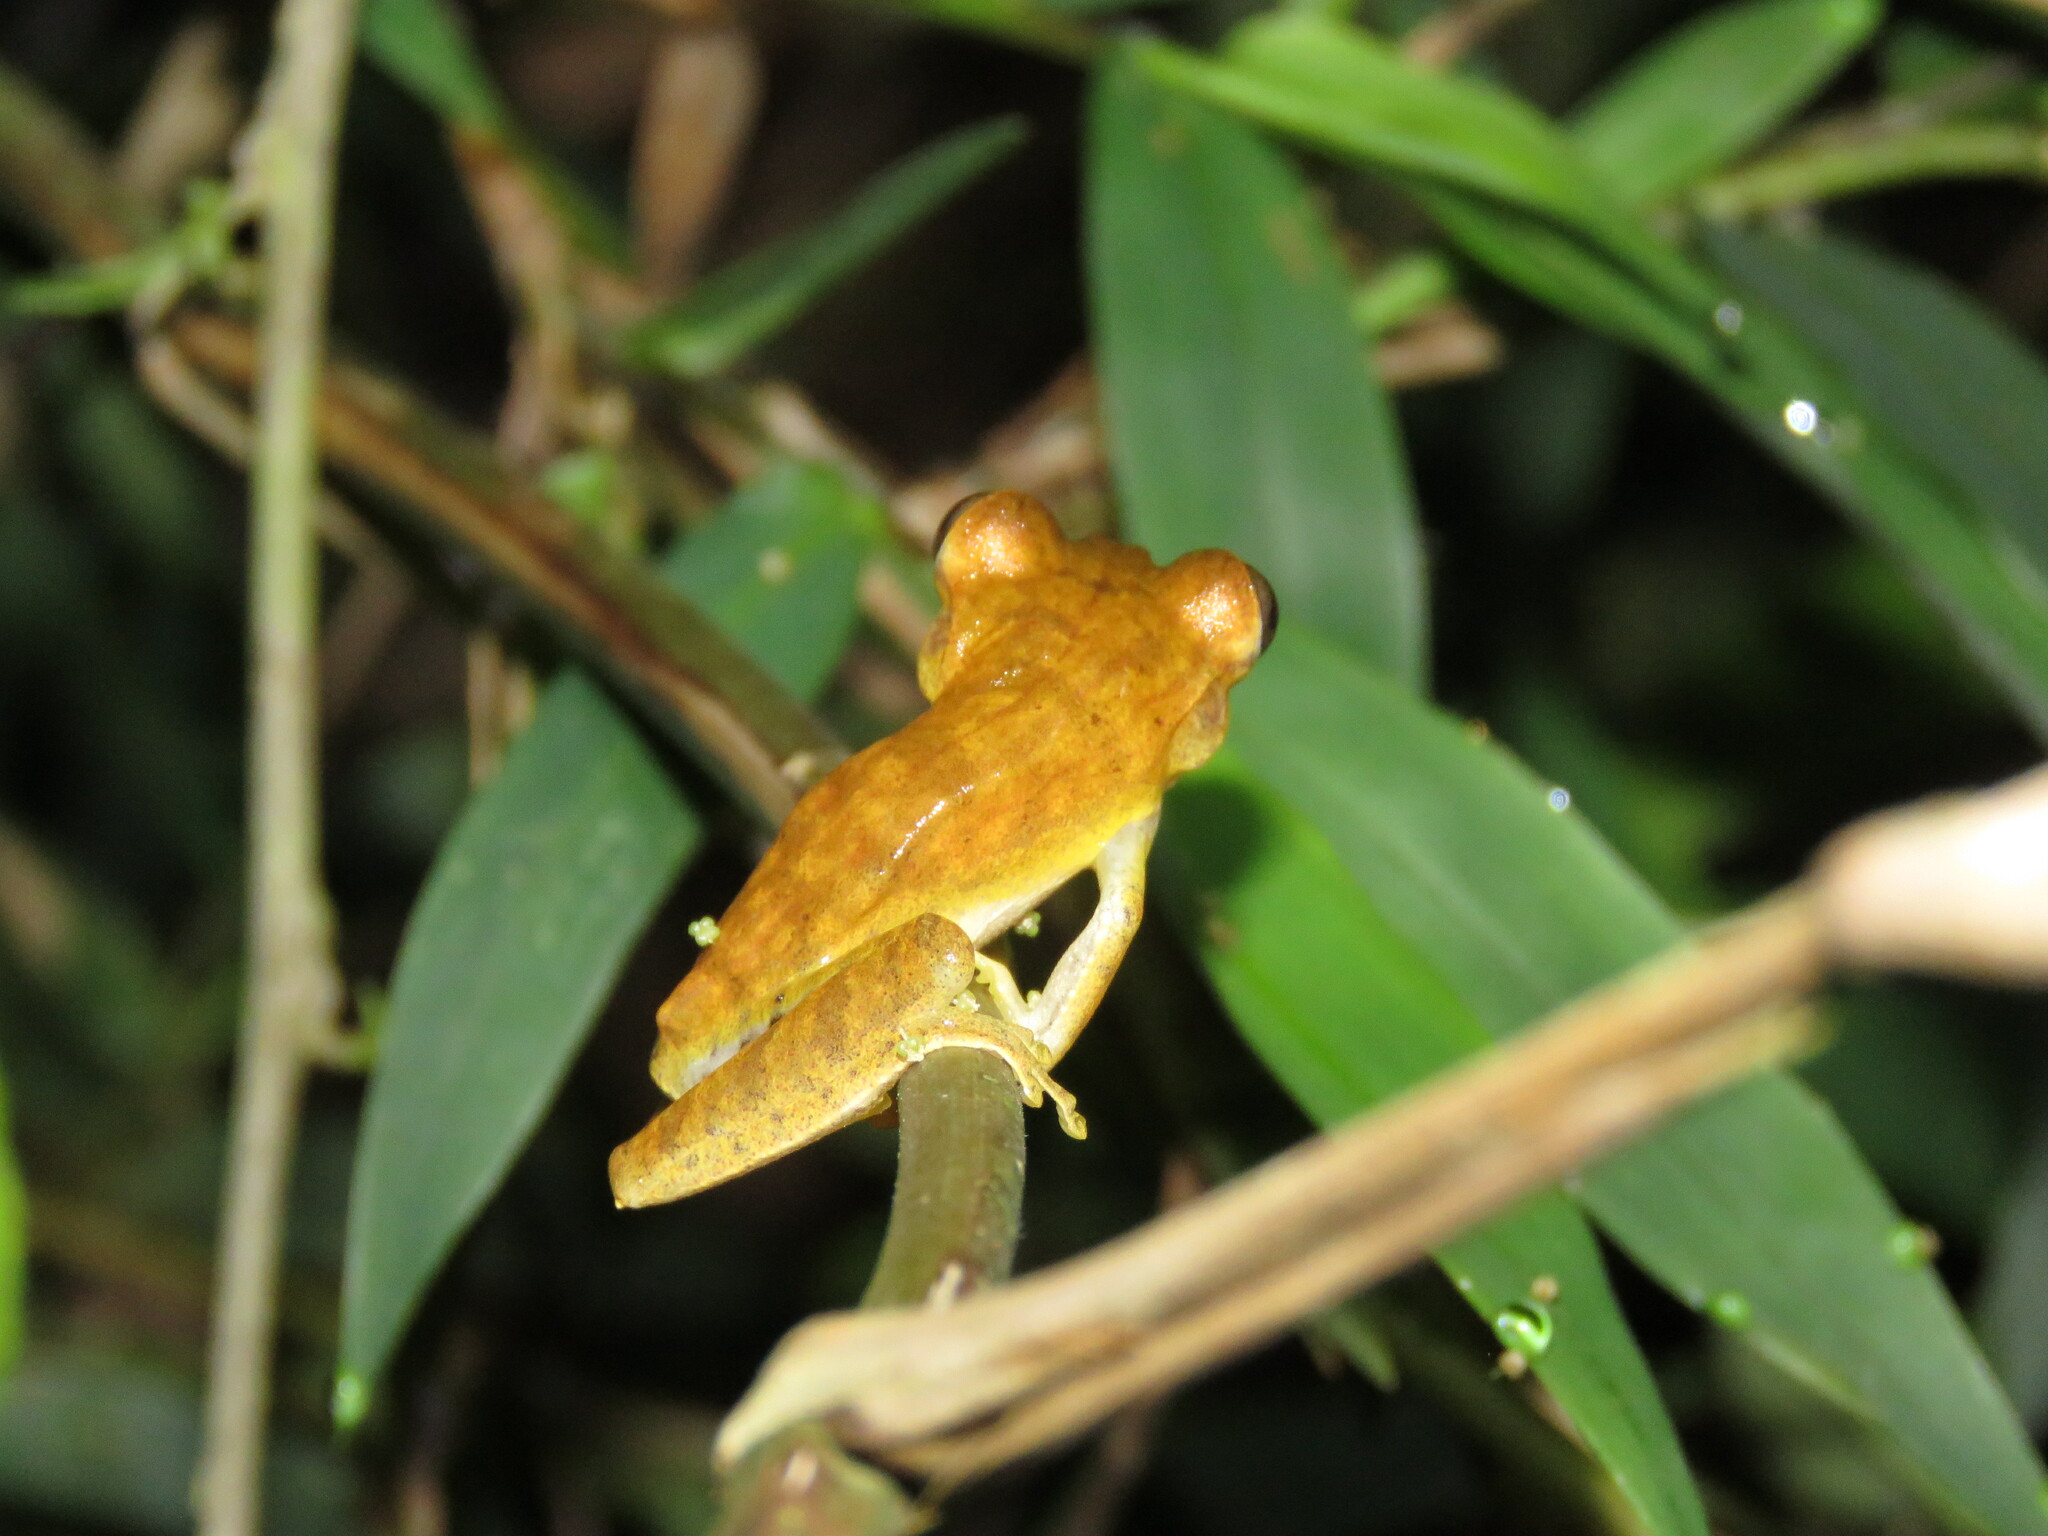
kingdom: Animalia
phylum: Chordata
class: Amphibia
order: Anura
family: Hylidae
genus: Boana
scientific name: Boana steinbachi
